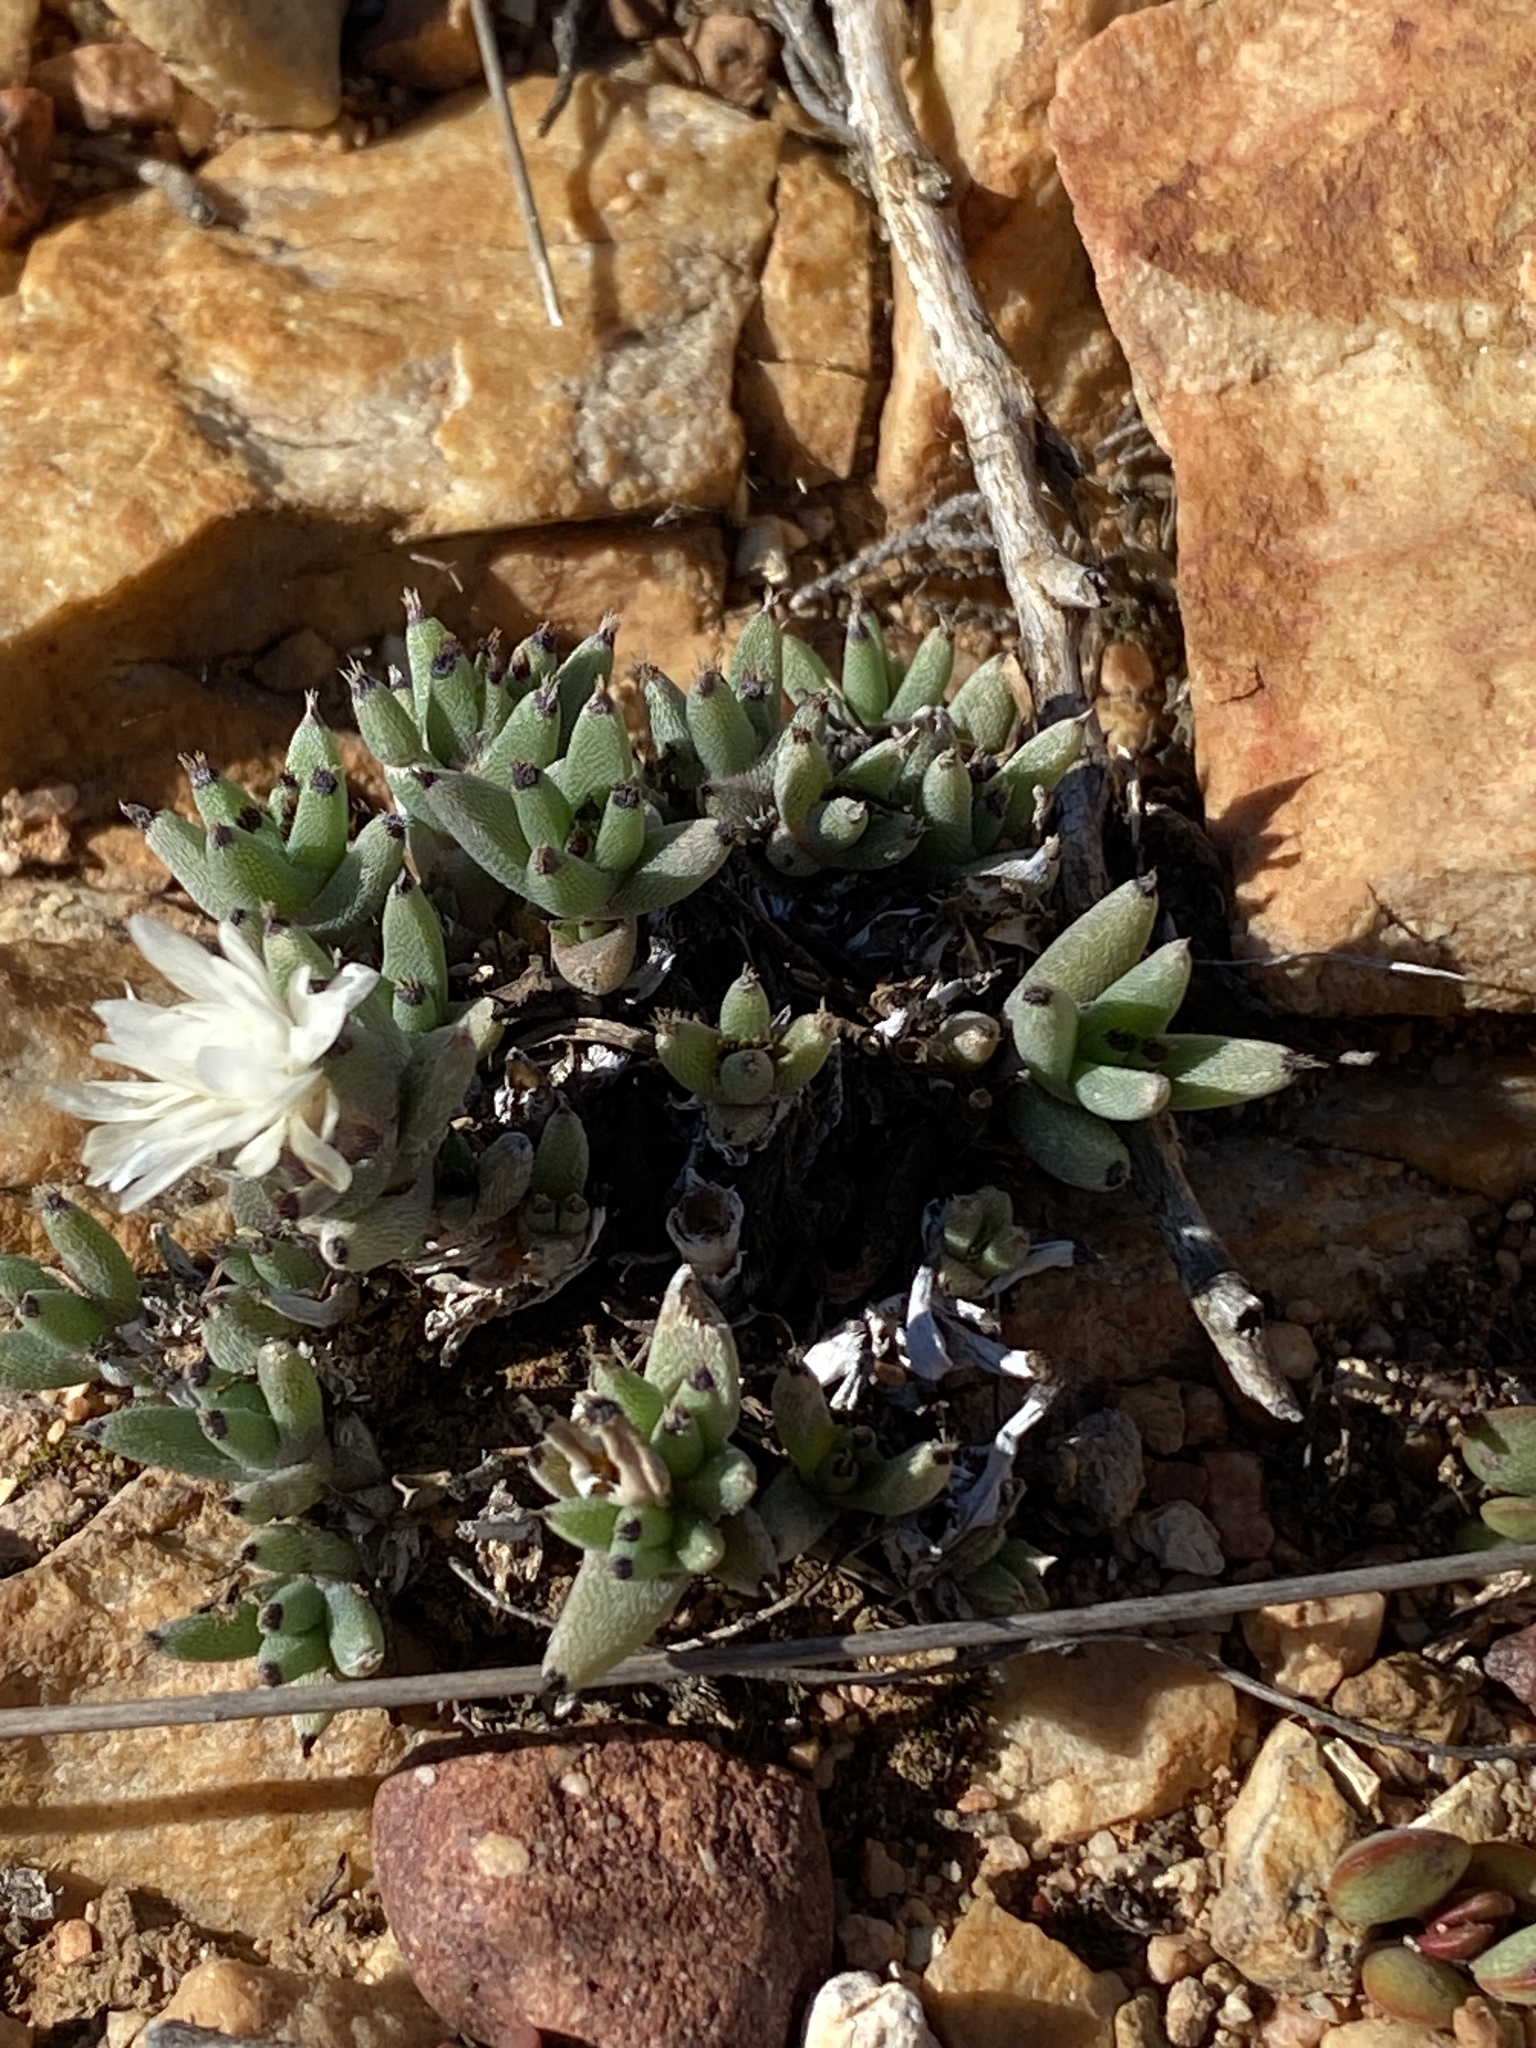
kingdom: Plantae
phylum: Tracheophyta
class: Magnoliopsida
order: Caryophyllales
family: Aizoaceae
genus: Trichodiadema
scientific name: Trichodiadema mirabile
